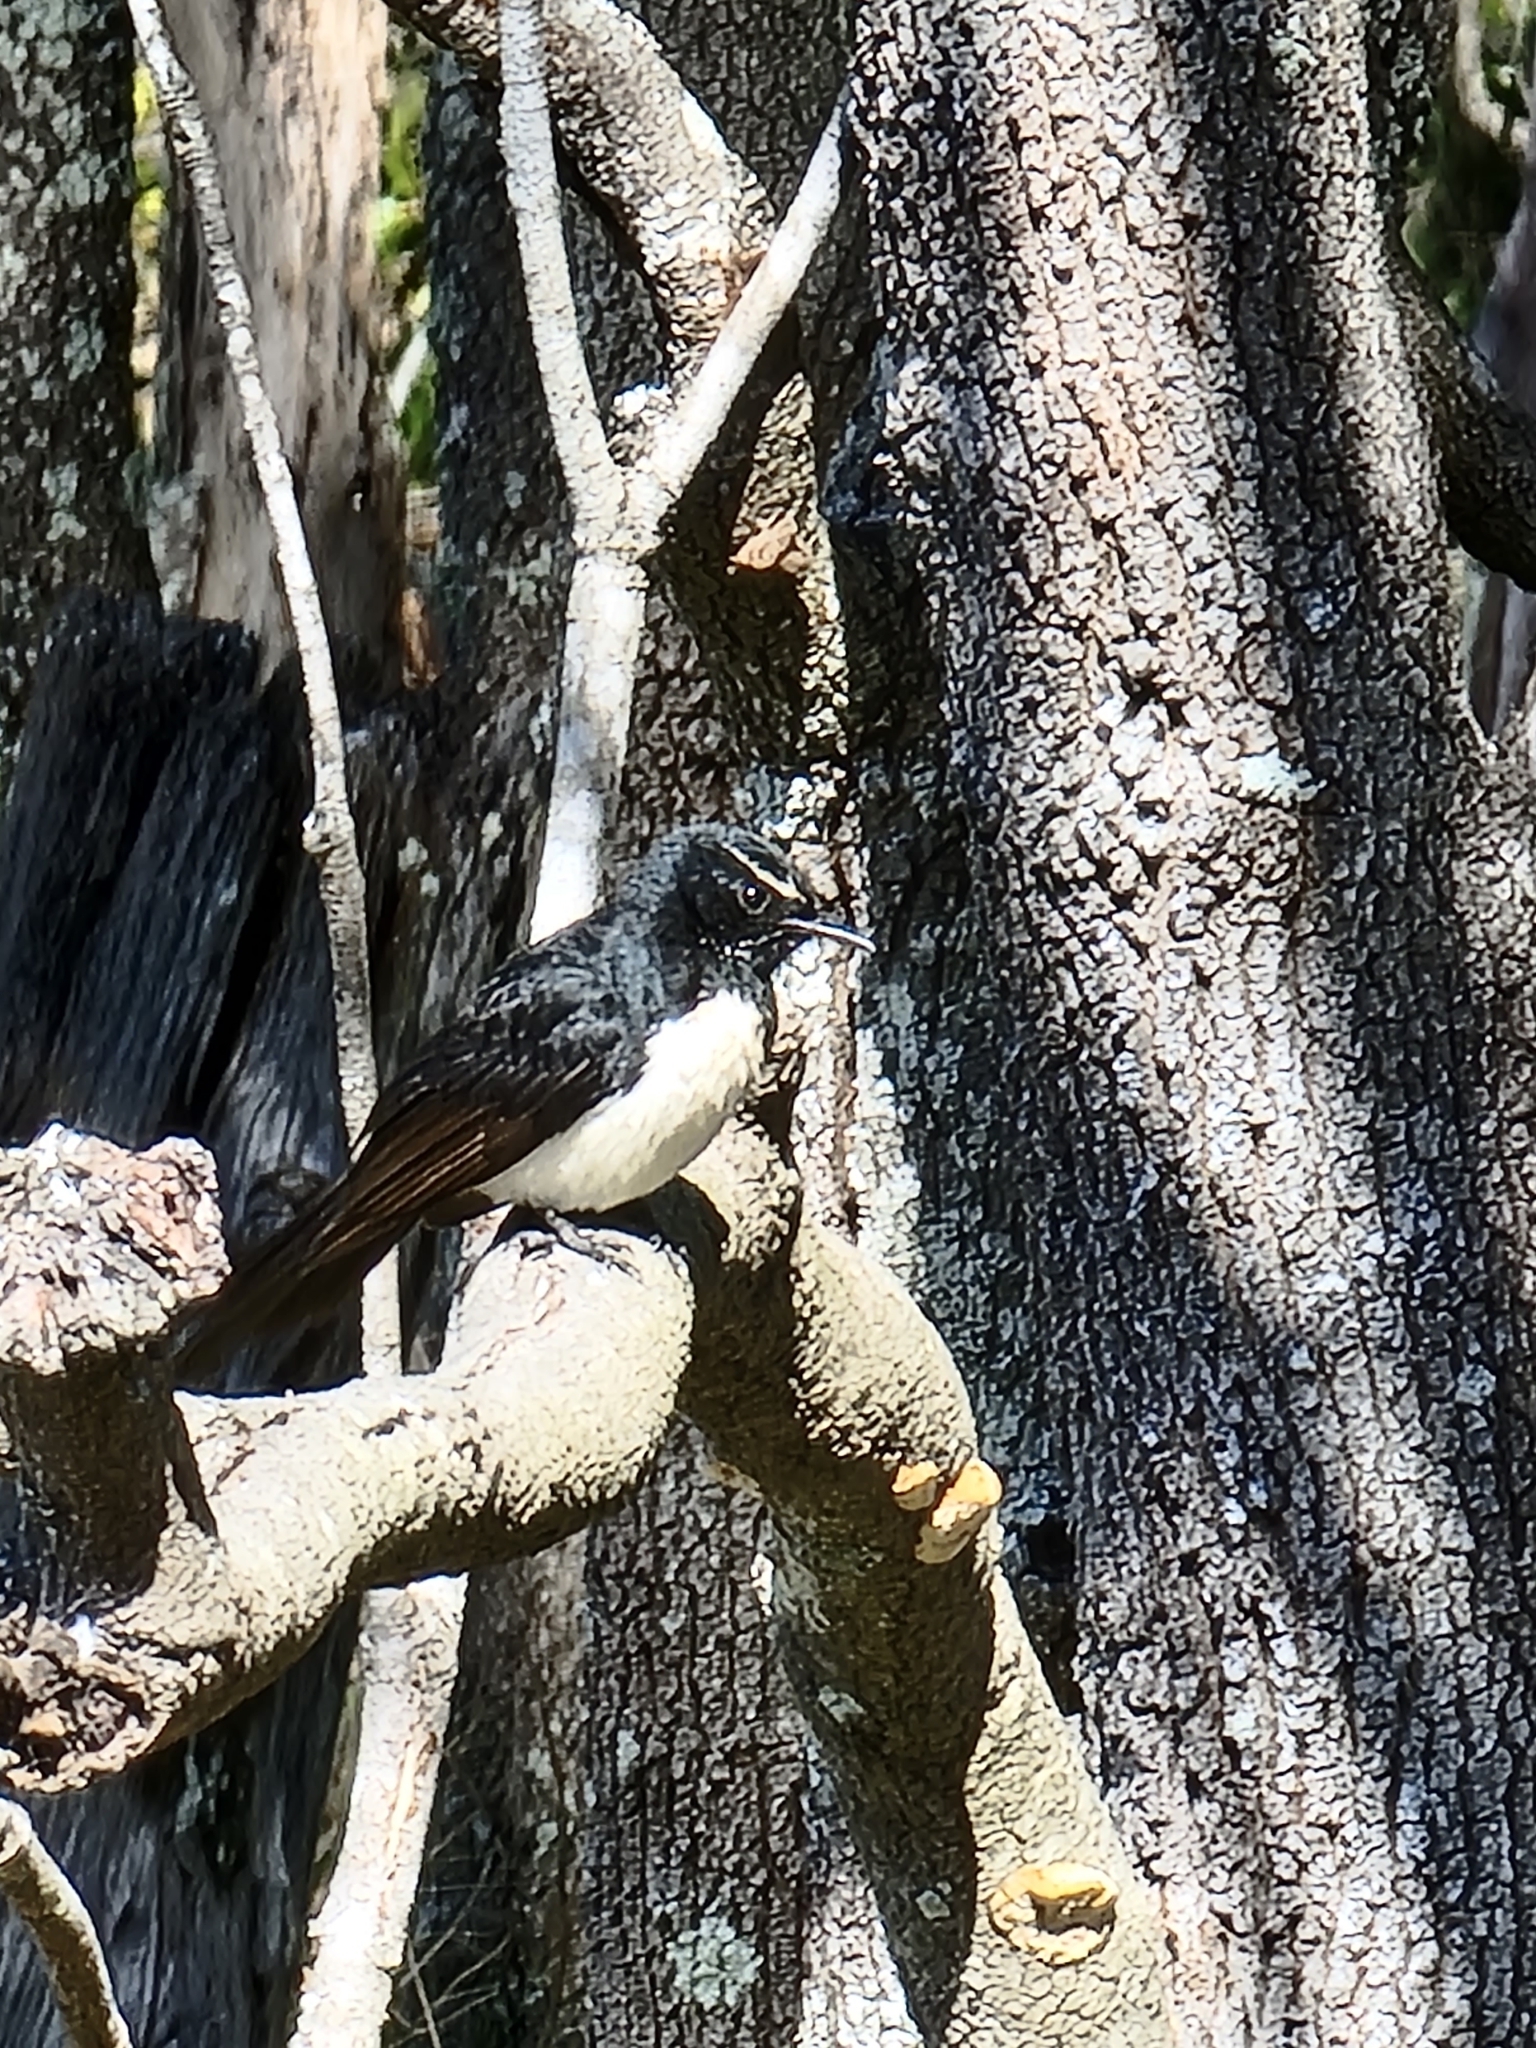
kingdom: Animalia
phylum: Chordata
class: Aves
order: Passeriformes
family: Rhipiduridae
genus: Rhipidura
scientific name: Rhipidura leucophrys
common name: Willie wagtail
